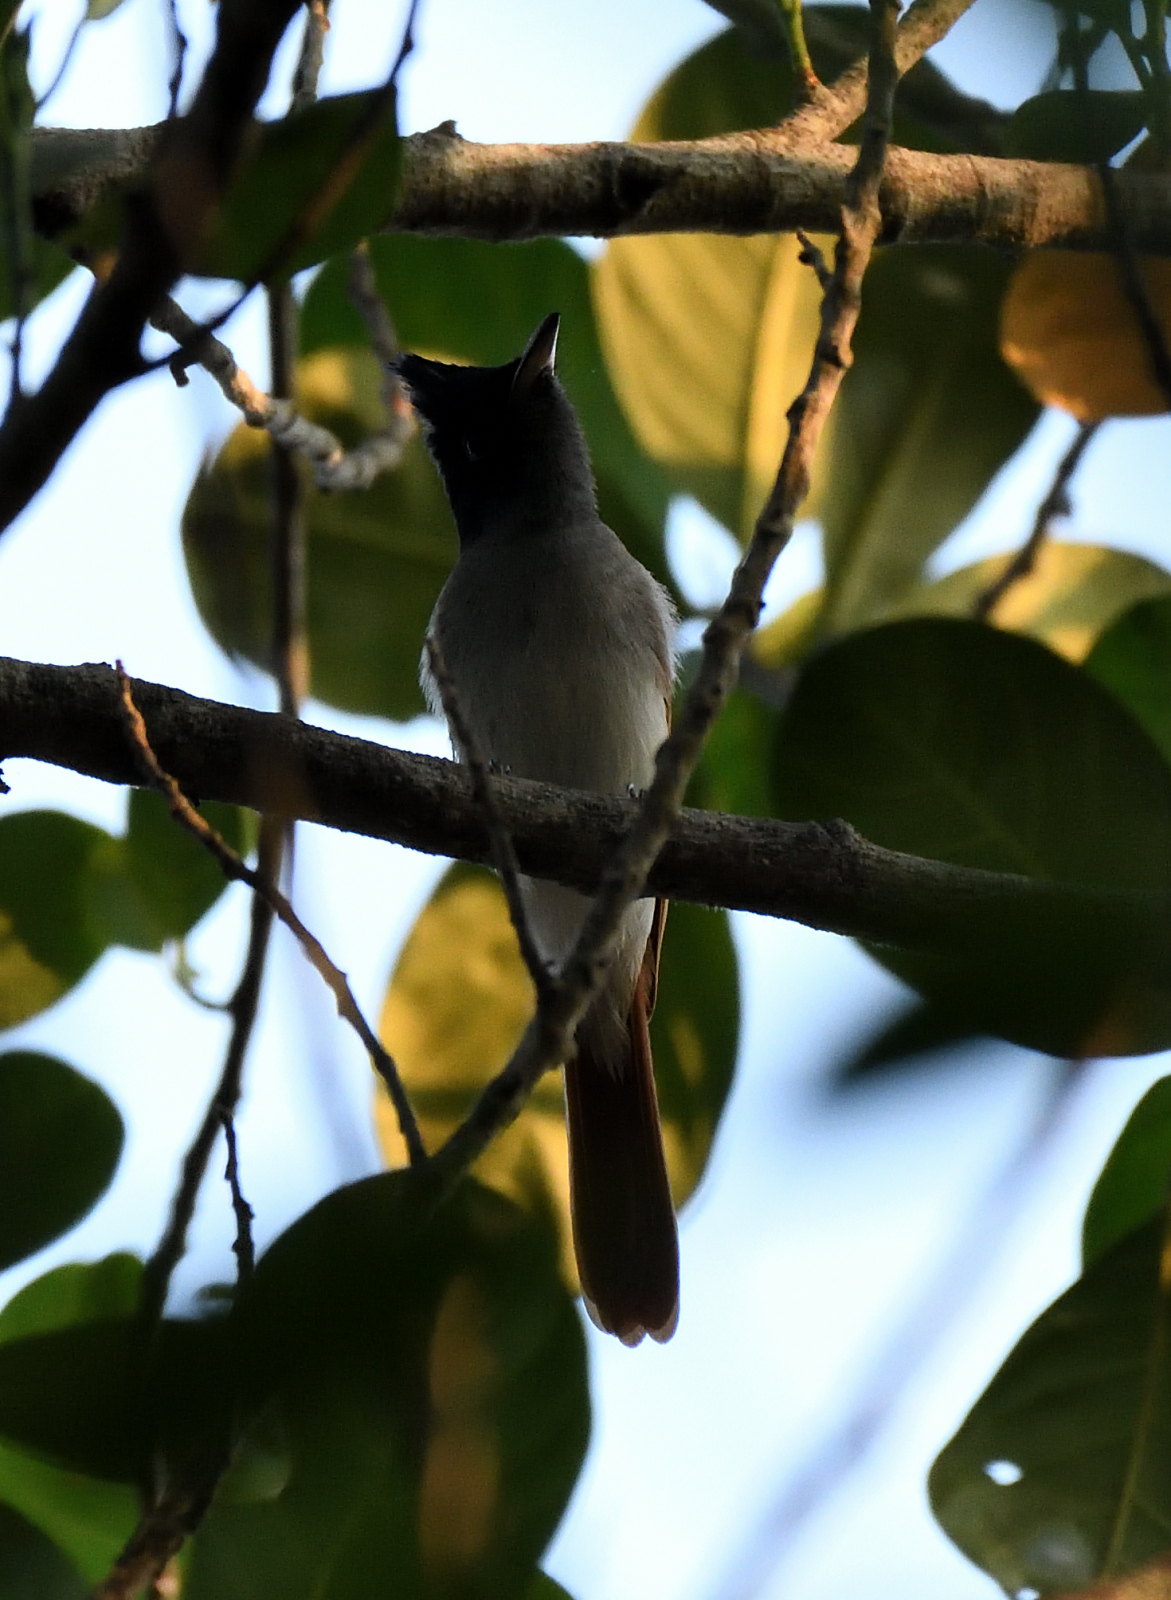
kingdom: Animalia
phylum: Chordata
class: Aves
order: Passeriformes
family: Monarchidae
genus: Terpsiphone
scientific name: Terpsiphone paradisi
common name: Indian paradise flycatcher
